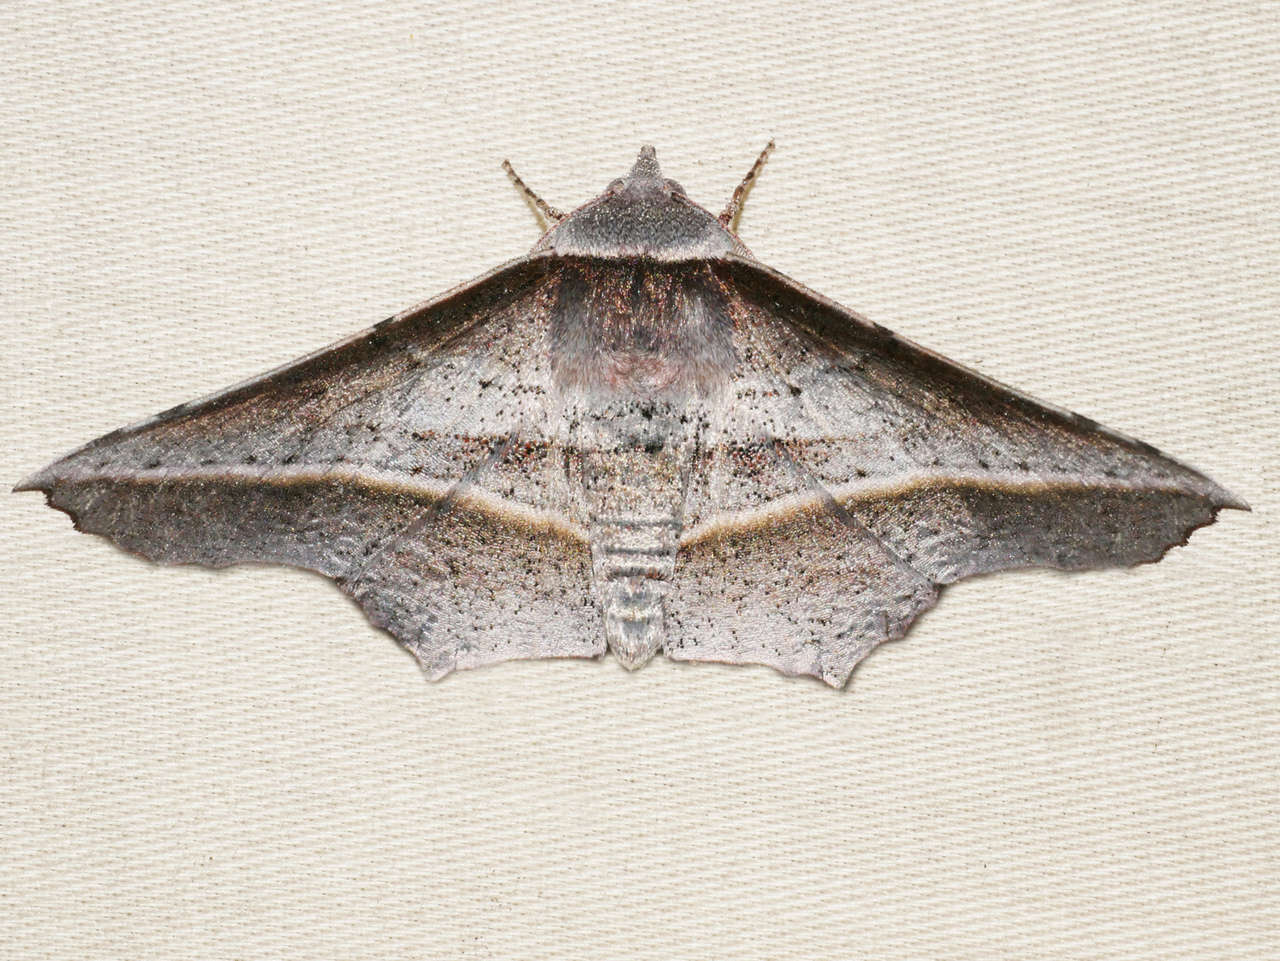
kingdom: Animalia
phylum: Arthropoda
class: Insecta
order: Lepidoptera
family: Geometridae
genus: Oenochroma
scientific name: Oenochroma vetustaria
